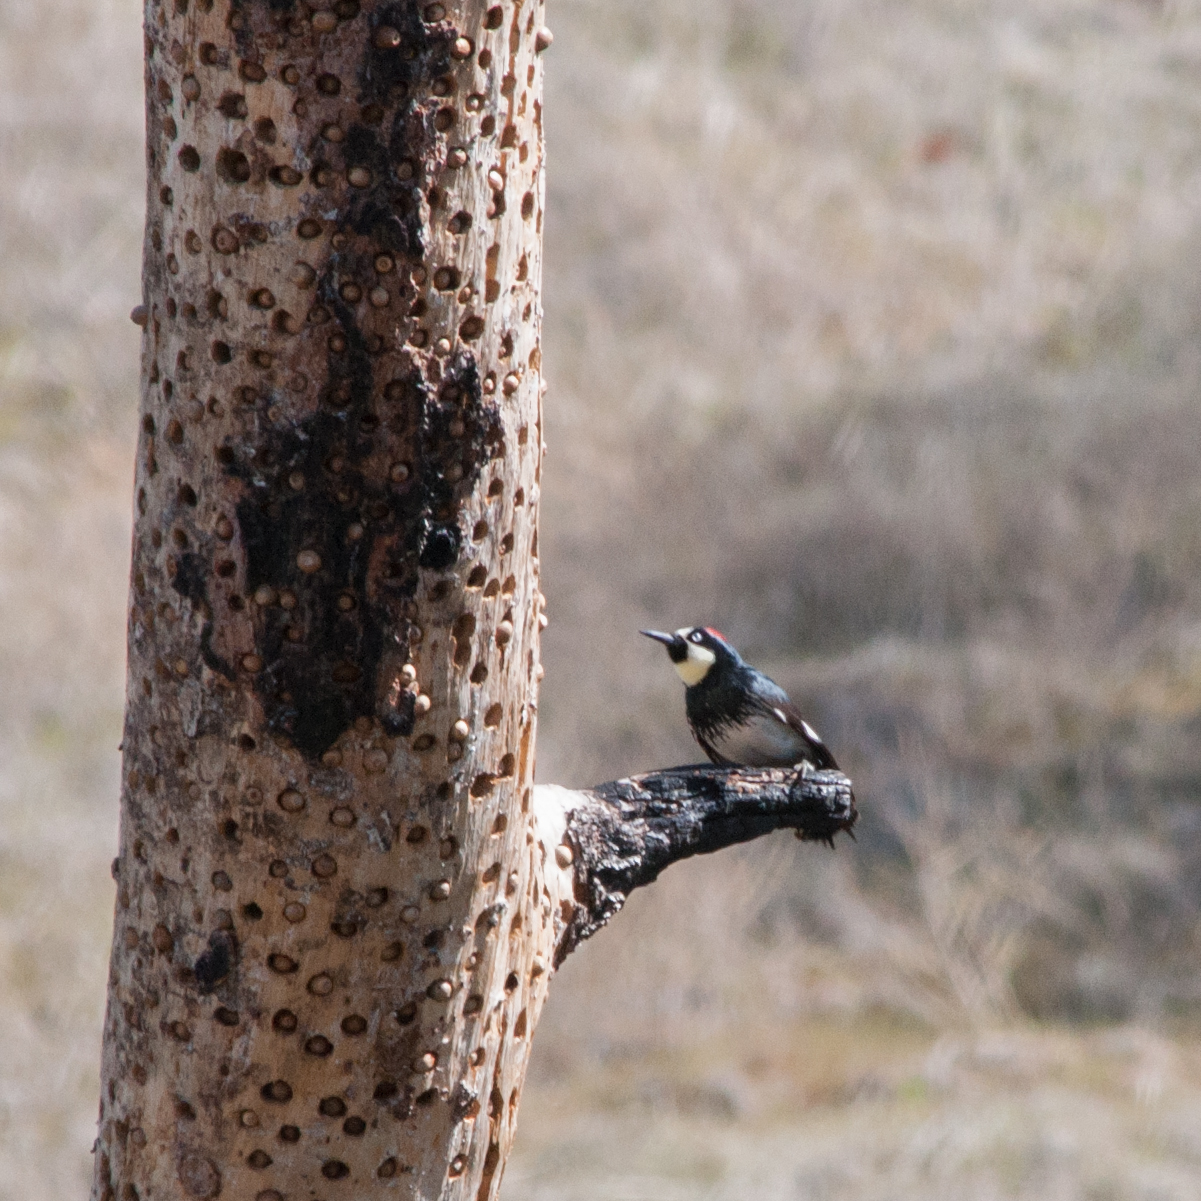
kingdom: Animalia
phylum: Chordata
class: Aves
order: Piciformes
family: Picidae
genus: Melanerpes
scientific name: Melanerpes formicivorus
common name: Acorn woodpecker
